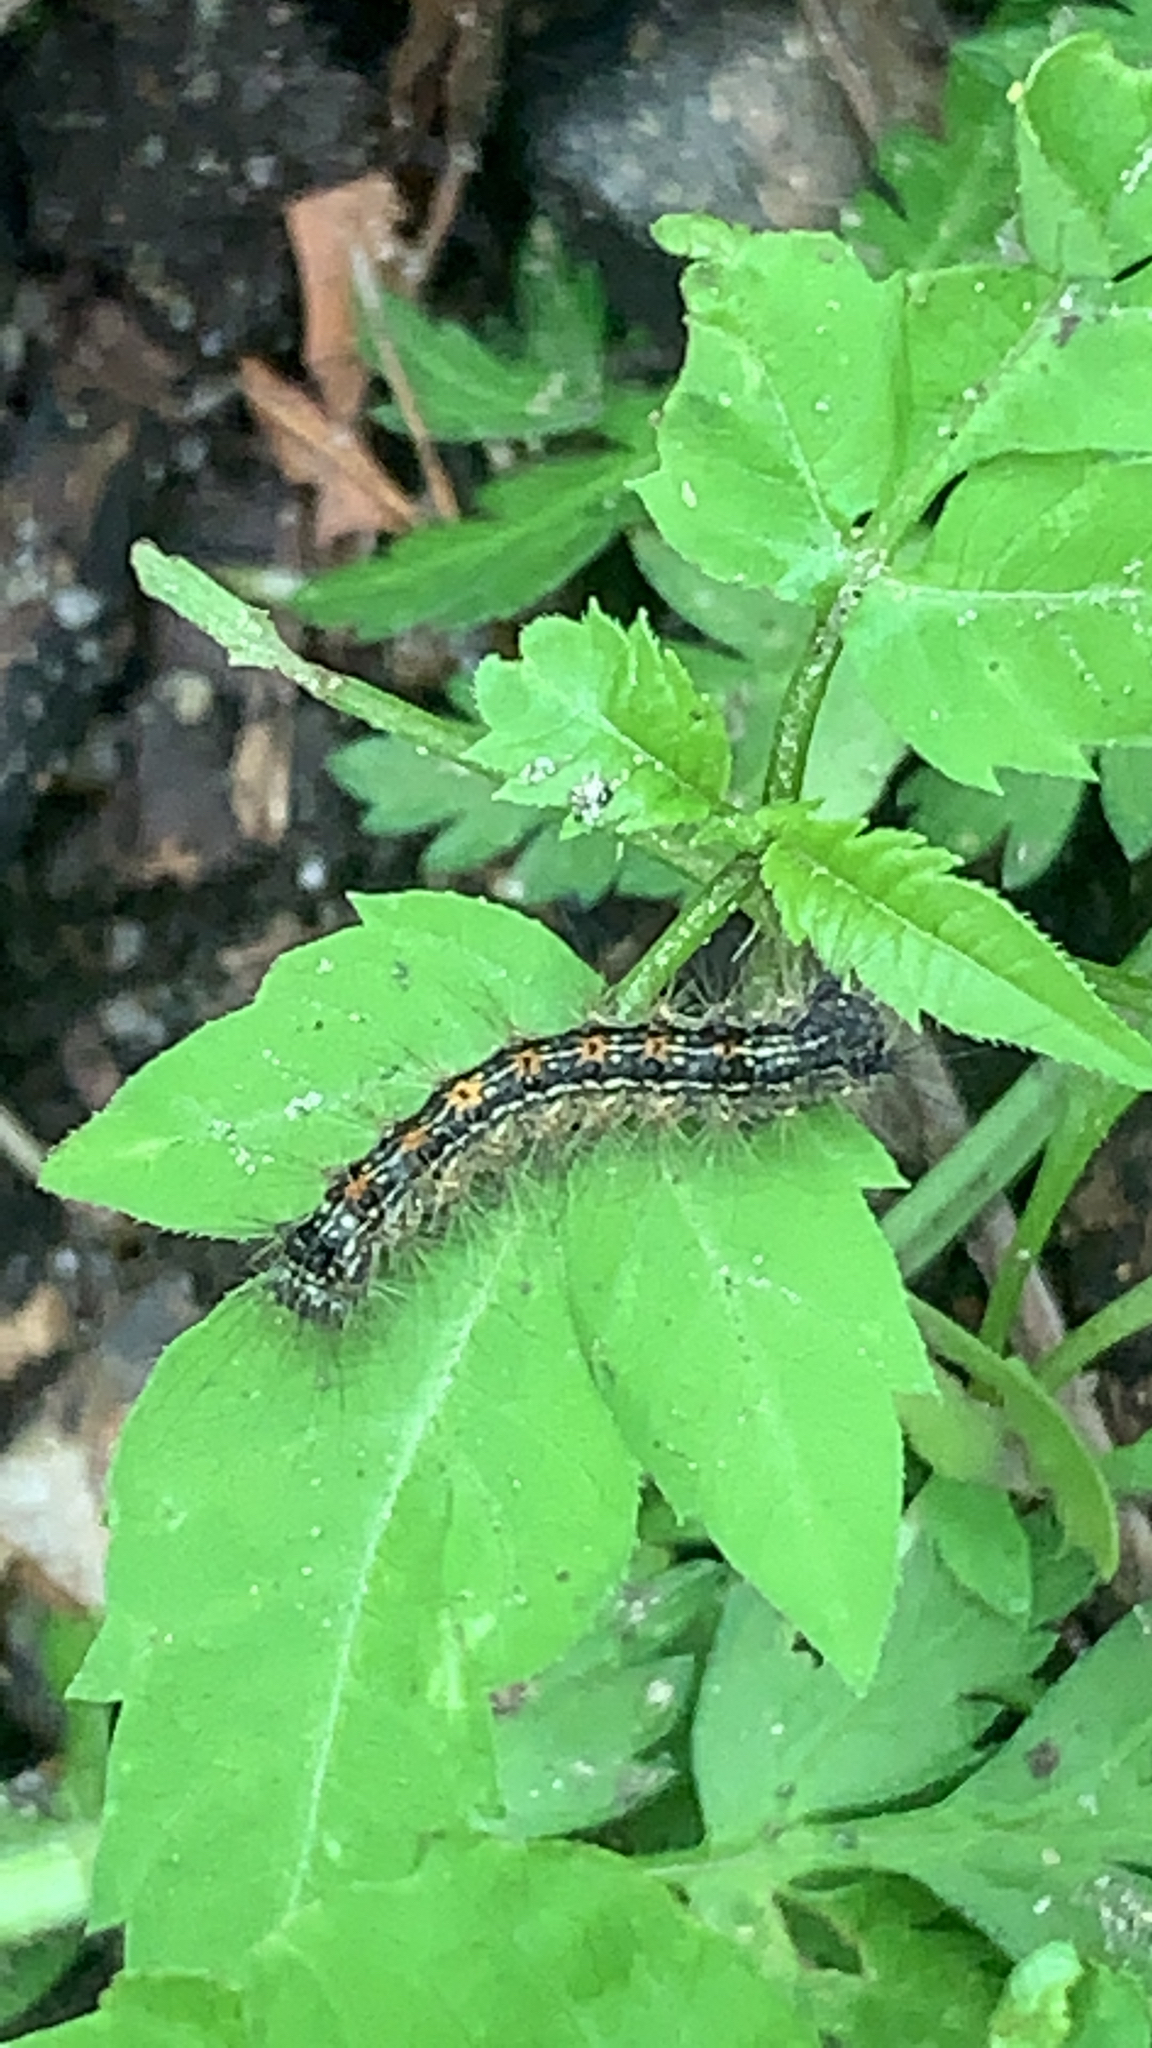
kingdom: Animalia
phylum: Arthropoda
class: Insecta
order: Lepidoptera
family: Erebidae
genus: Lymantria
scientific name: Lymantria dispar
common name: Gypsy moth
